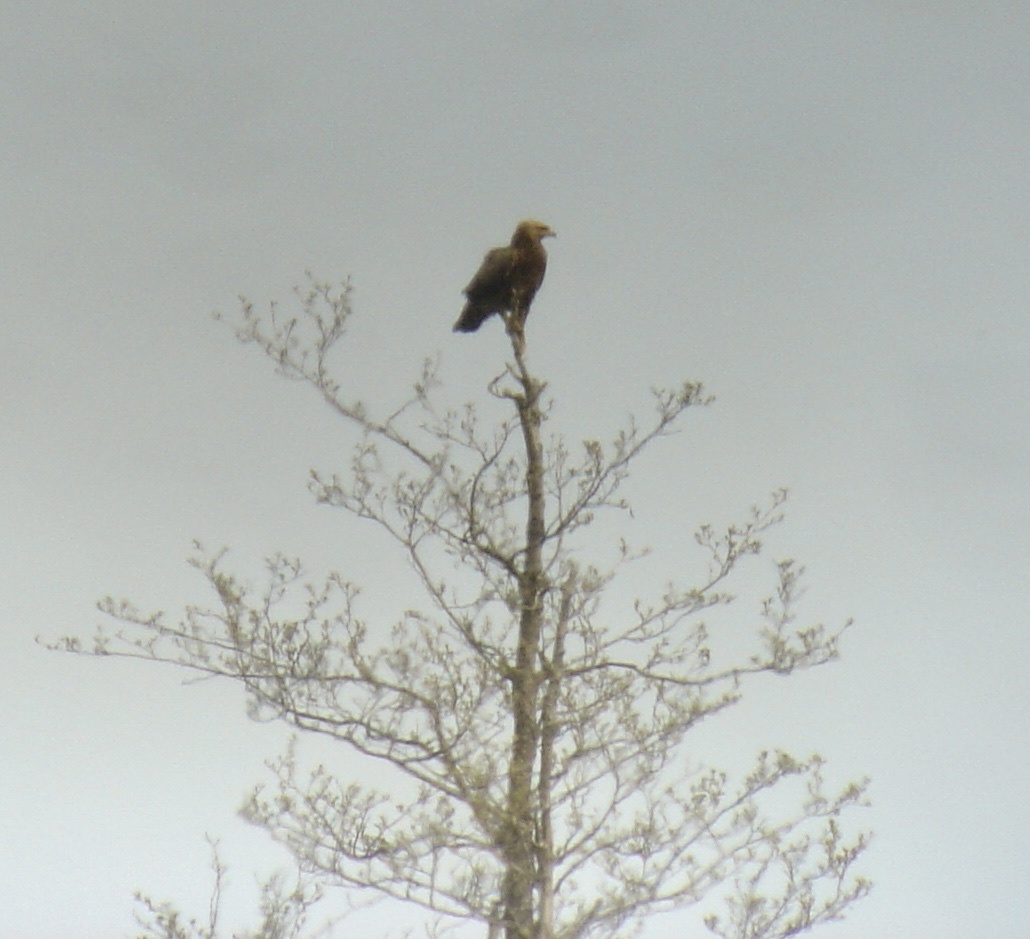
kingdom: Animalia
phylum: Chordata
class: Aves
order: Accipitriformes
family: Accipitridae
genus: Aquila
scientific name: Aquila pomarina
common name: Lesser spotted eagle
